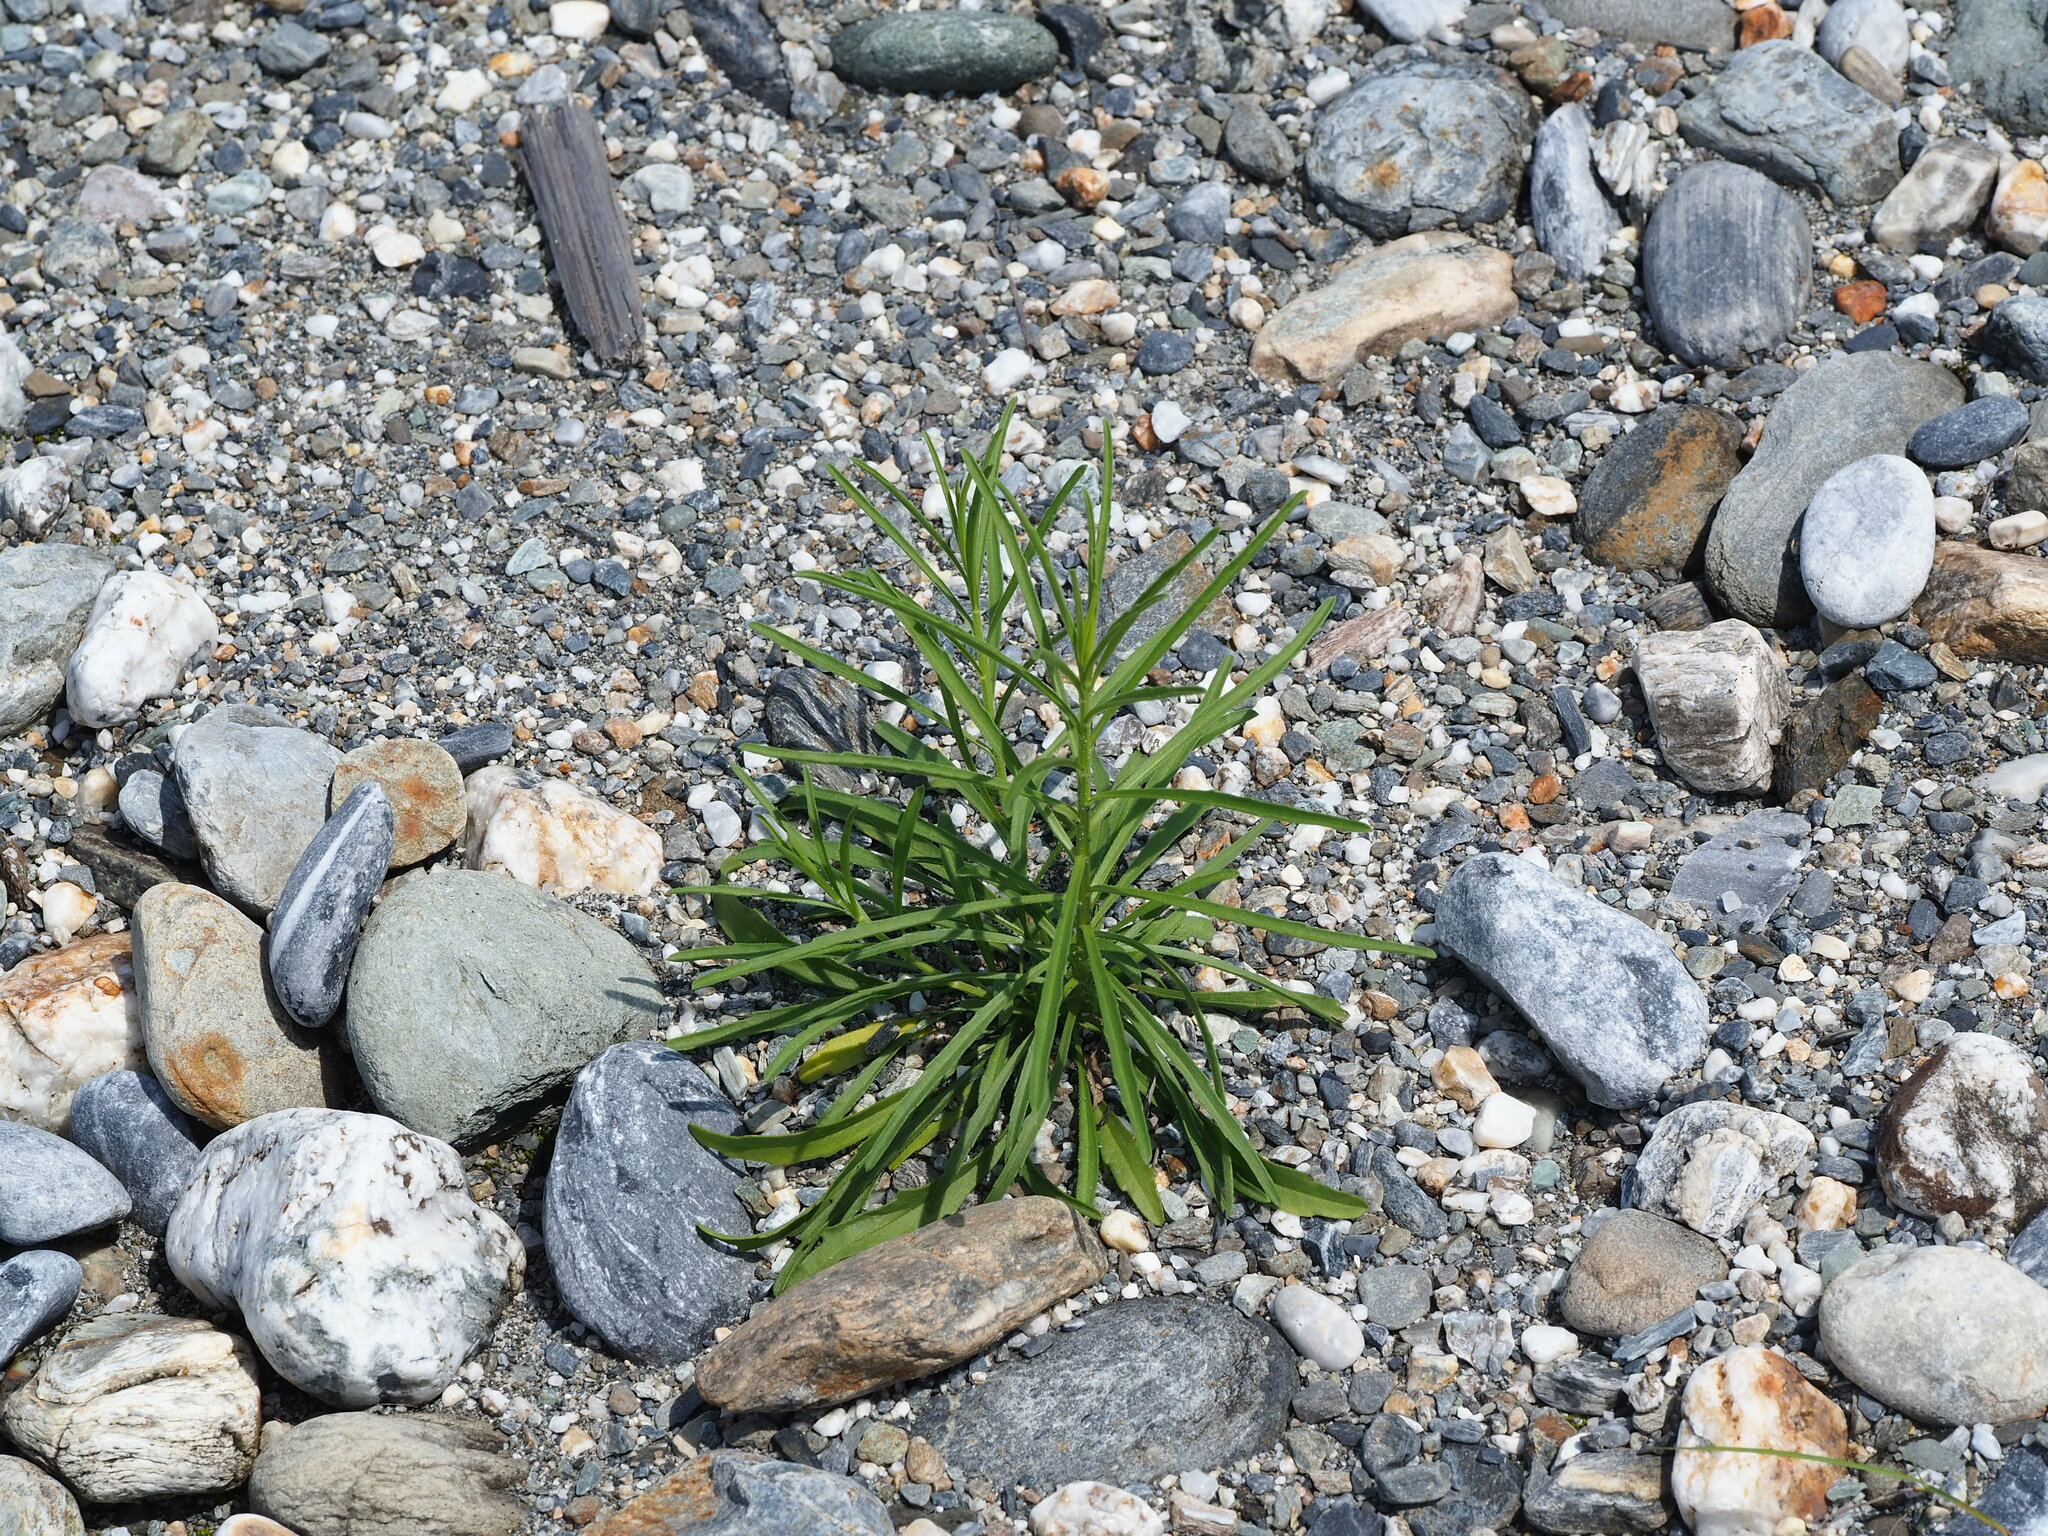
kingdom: Plantae
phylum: Tracheophyta
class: Magnoliopsida
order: Asterales
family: Asteraceae
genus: Heteropappus
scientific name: Heteropappus altaicus
